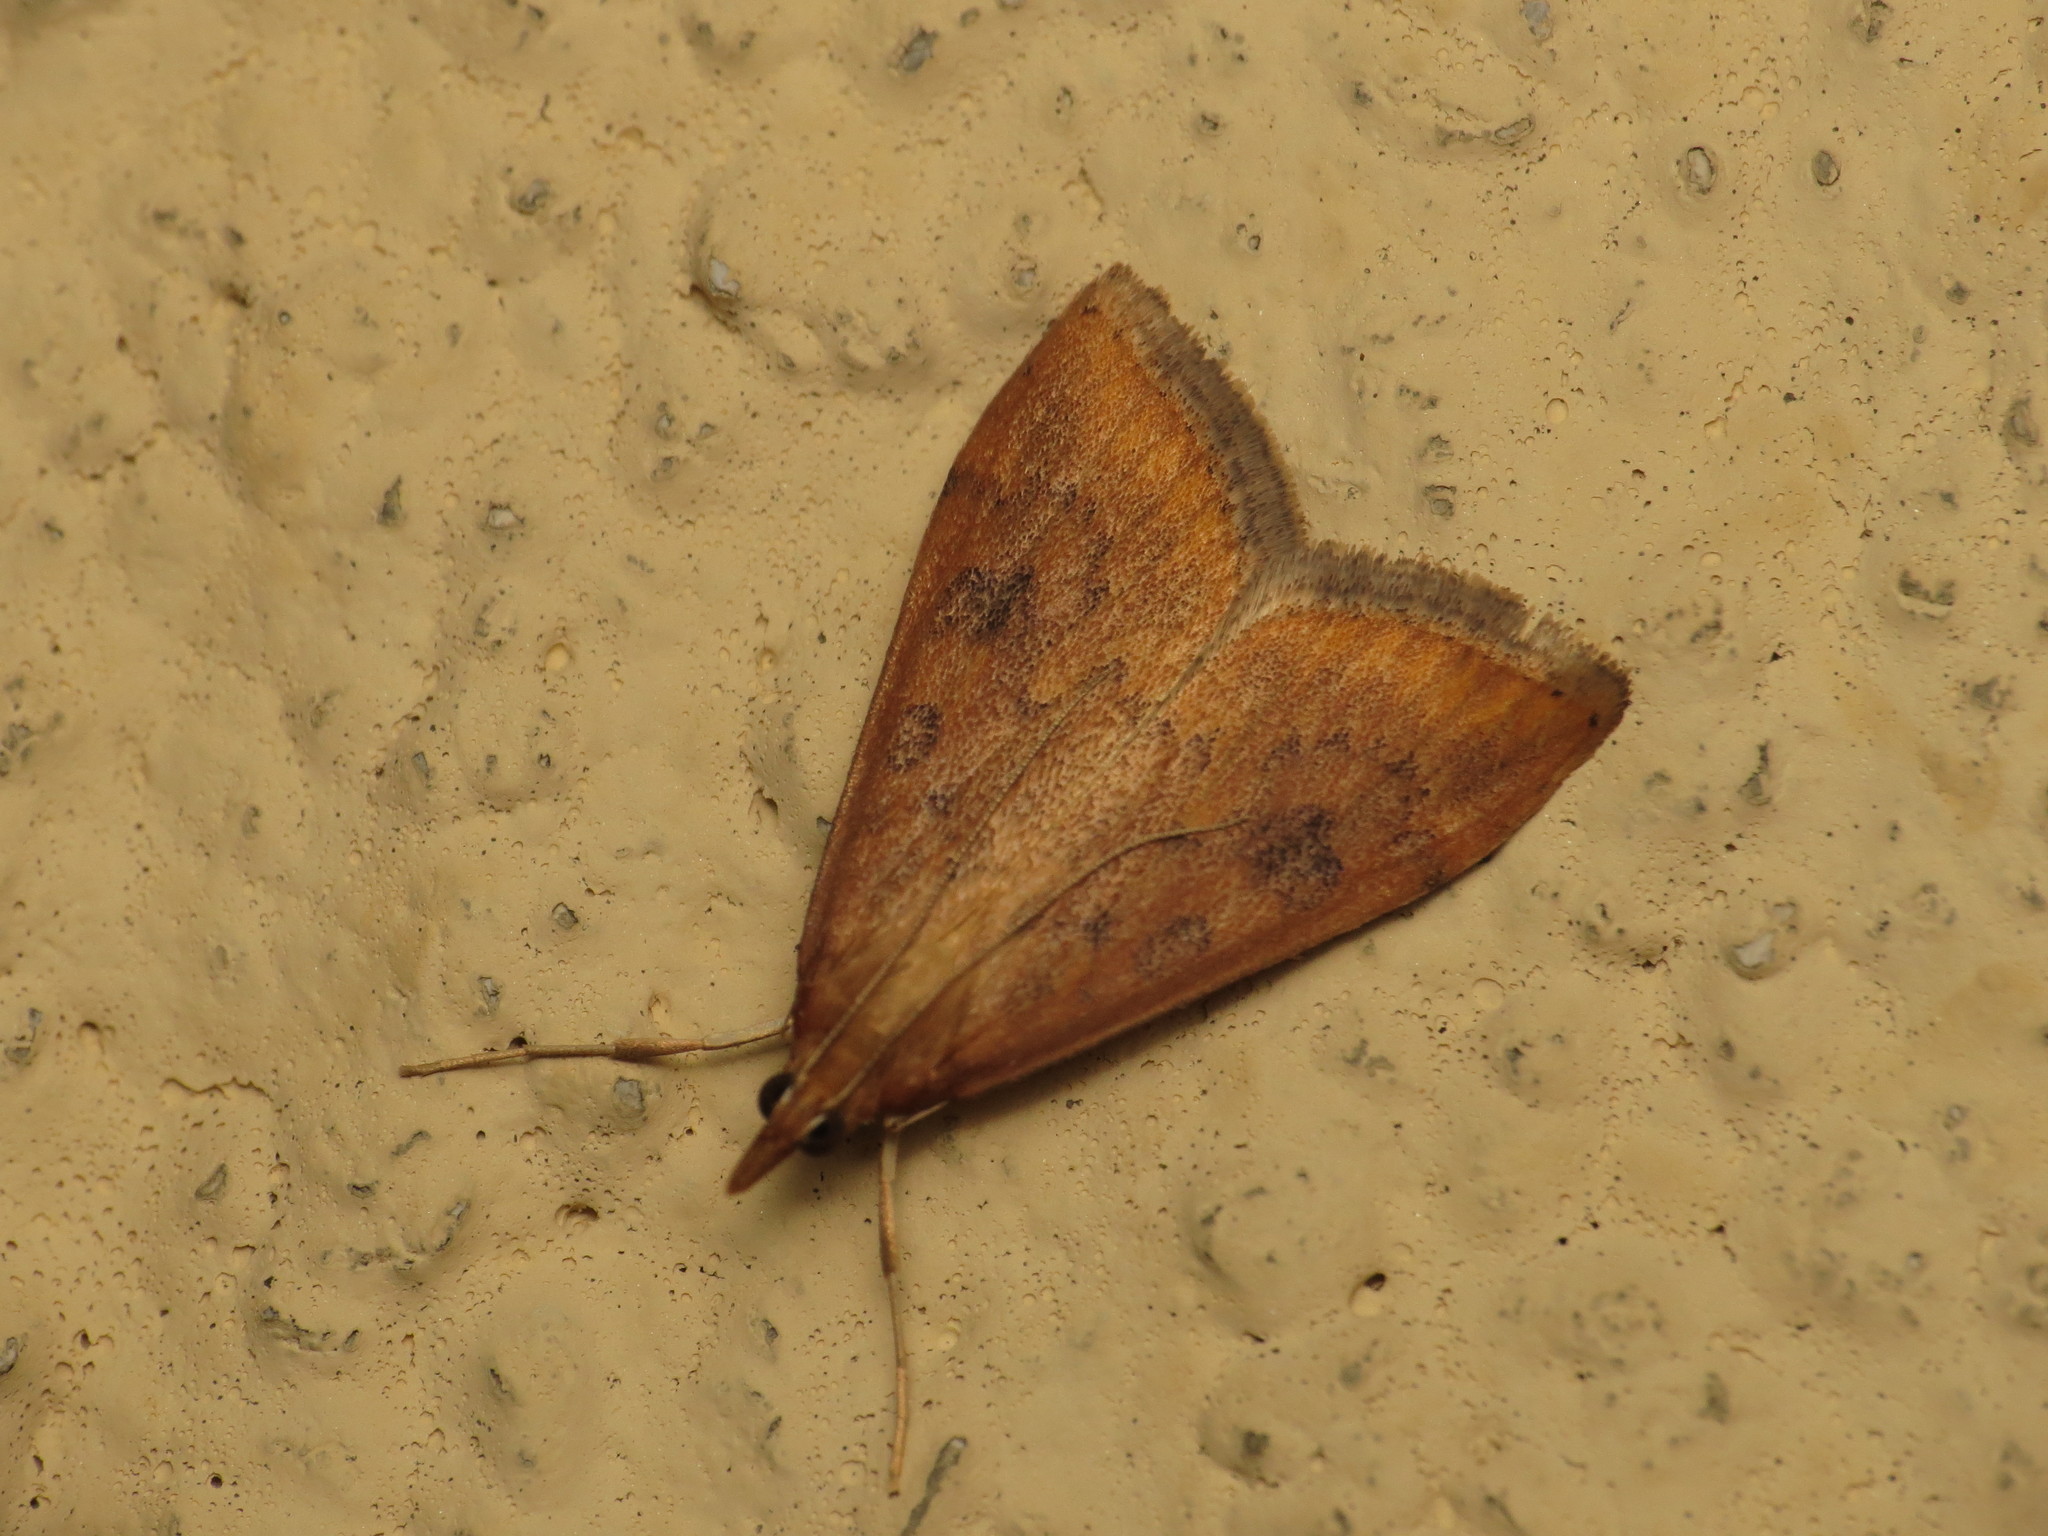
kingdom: Animalia
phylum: Arthropoda
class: Insecta
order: Lepidoptera
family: Crambidae
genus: Udea
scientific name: Udea ferrugalis
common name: Rusty dot
